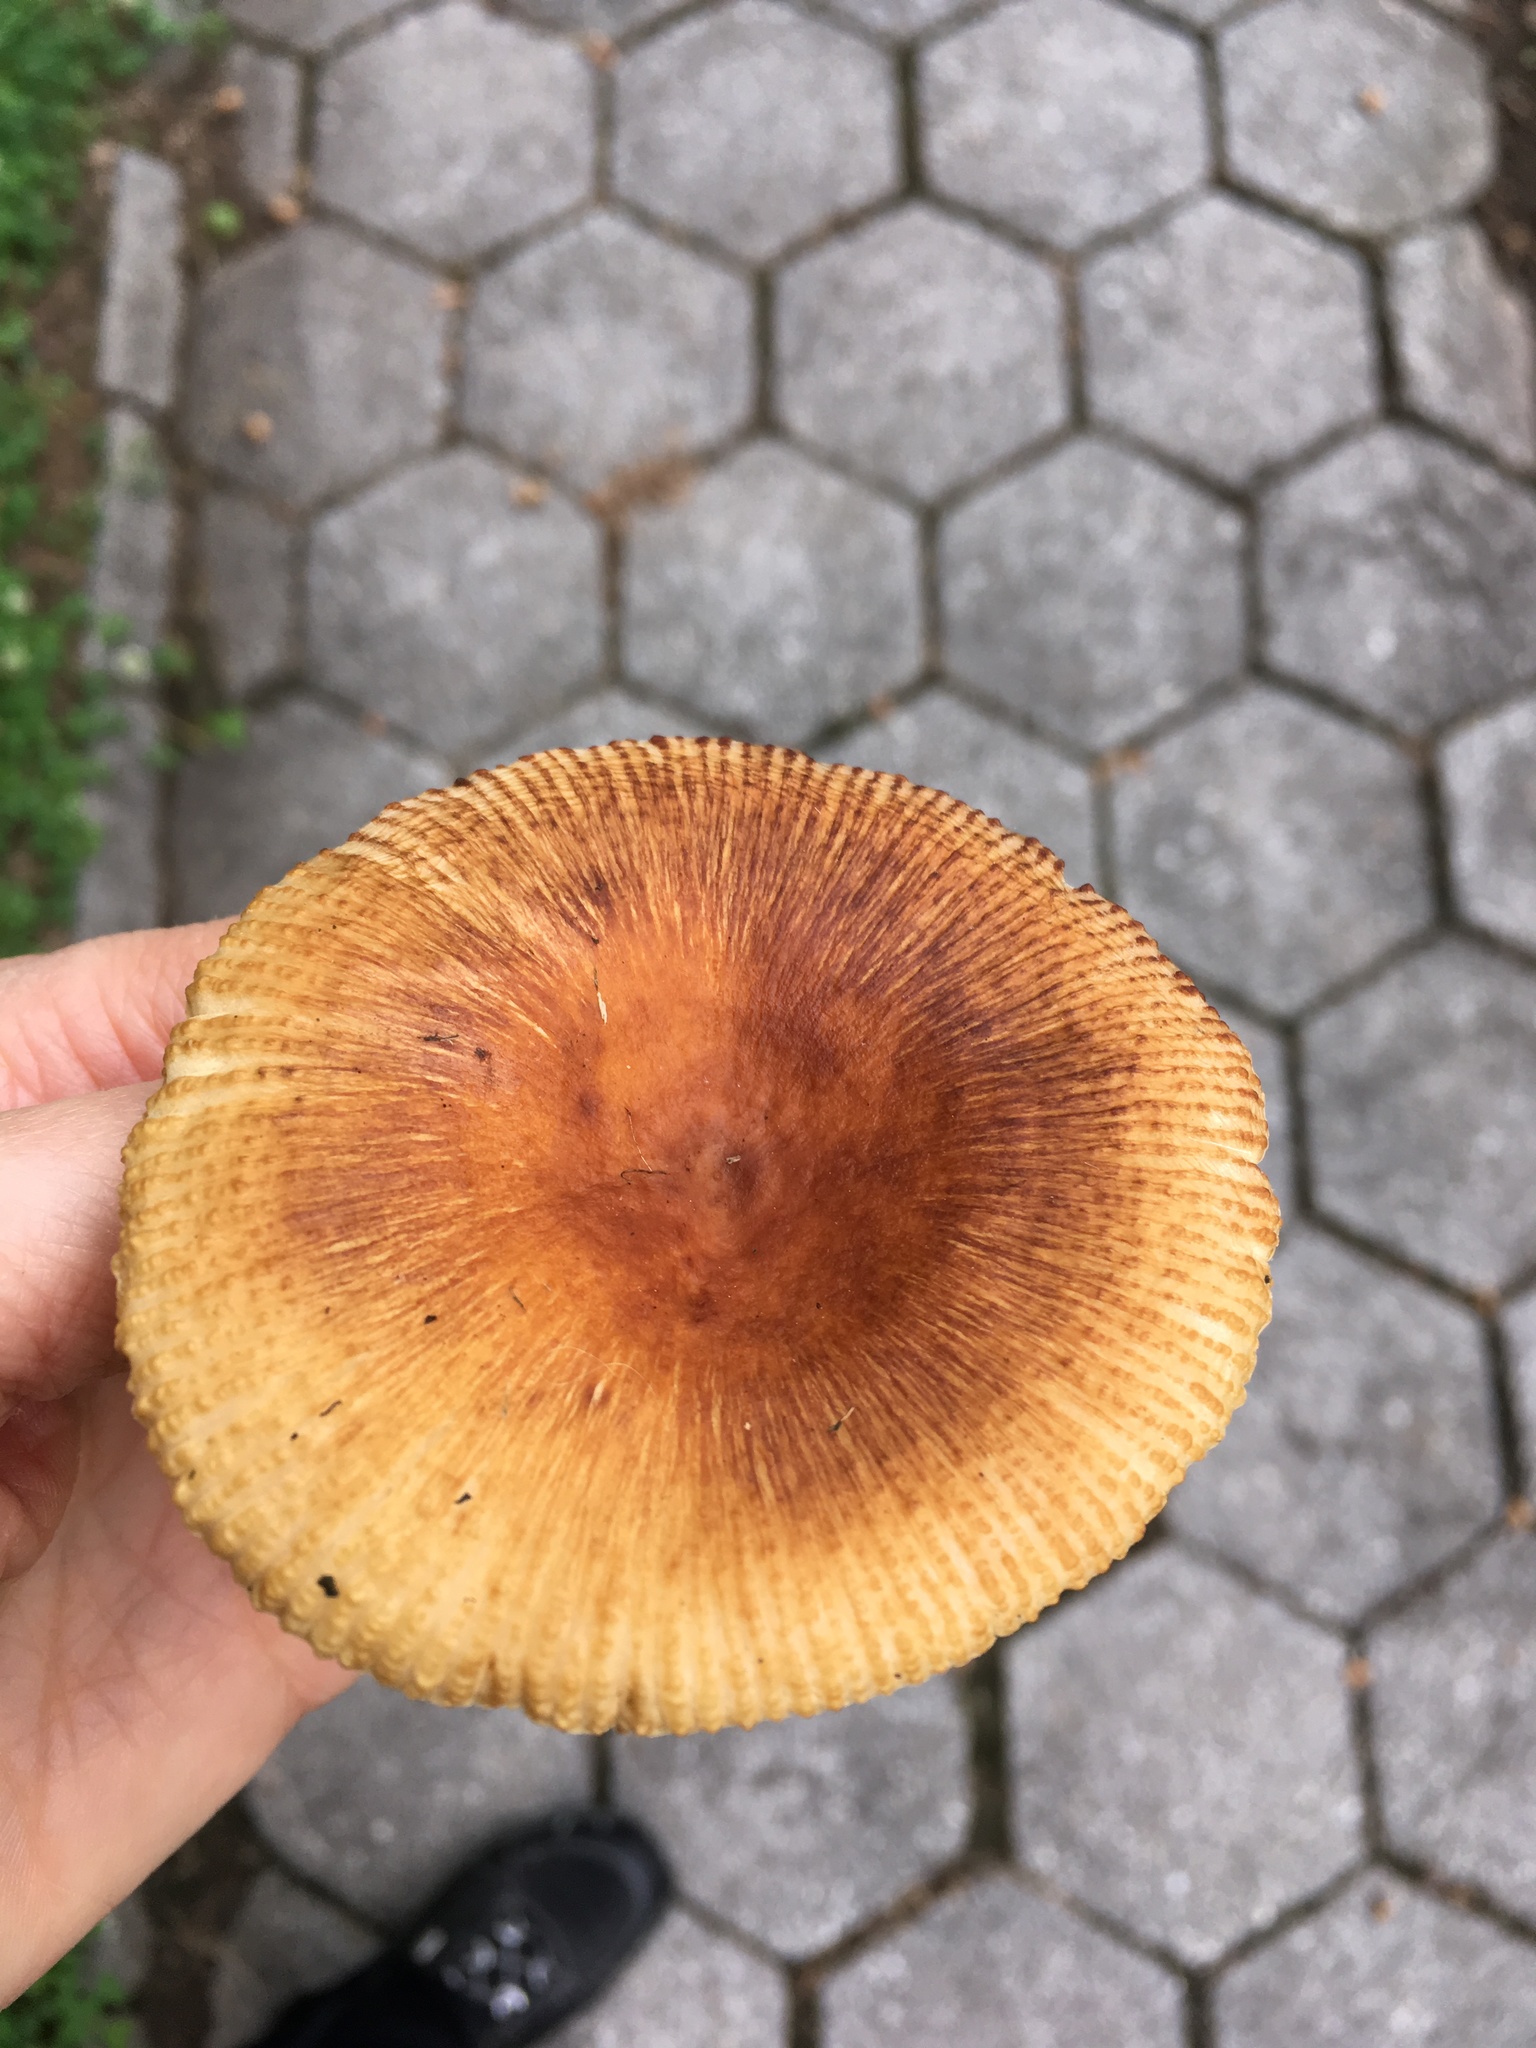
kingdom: Fungi
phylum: Basidiomycota
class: Agaricomycetes
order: Russulales
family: Russulaceae
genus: Russula
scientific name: Russula mutabilis
